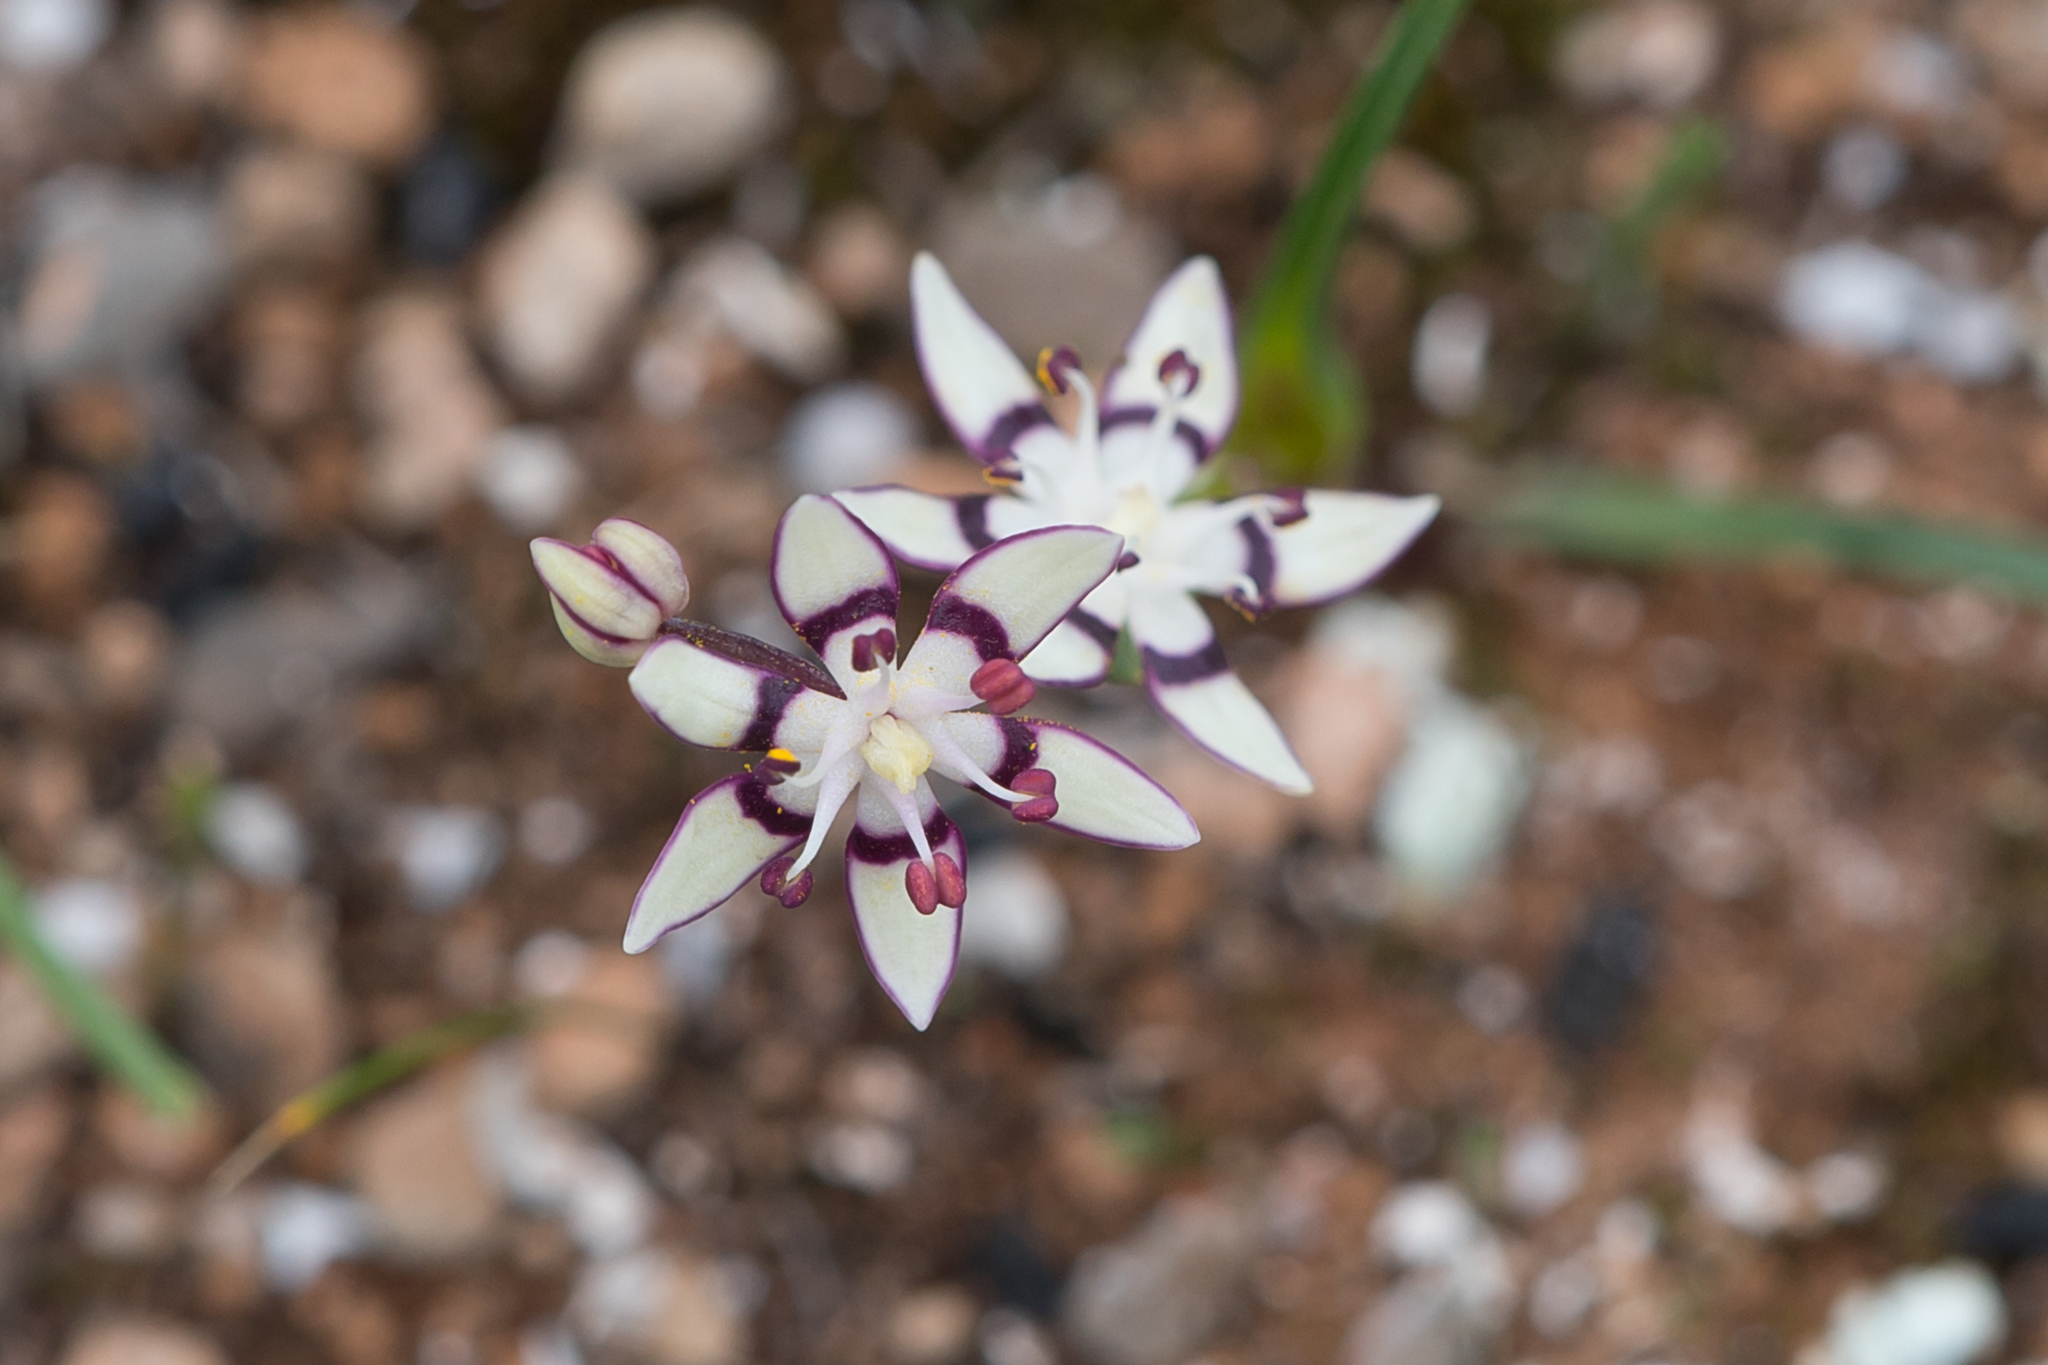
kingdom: Plantae
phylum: Tracheophyta
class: Liliopsida
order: Liliales
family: Colchicaceae
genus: Wurmbea
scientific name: Wurmbea dioica
